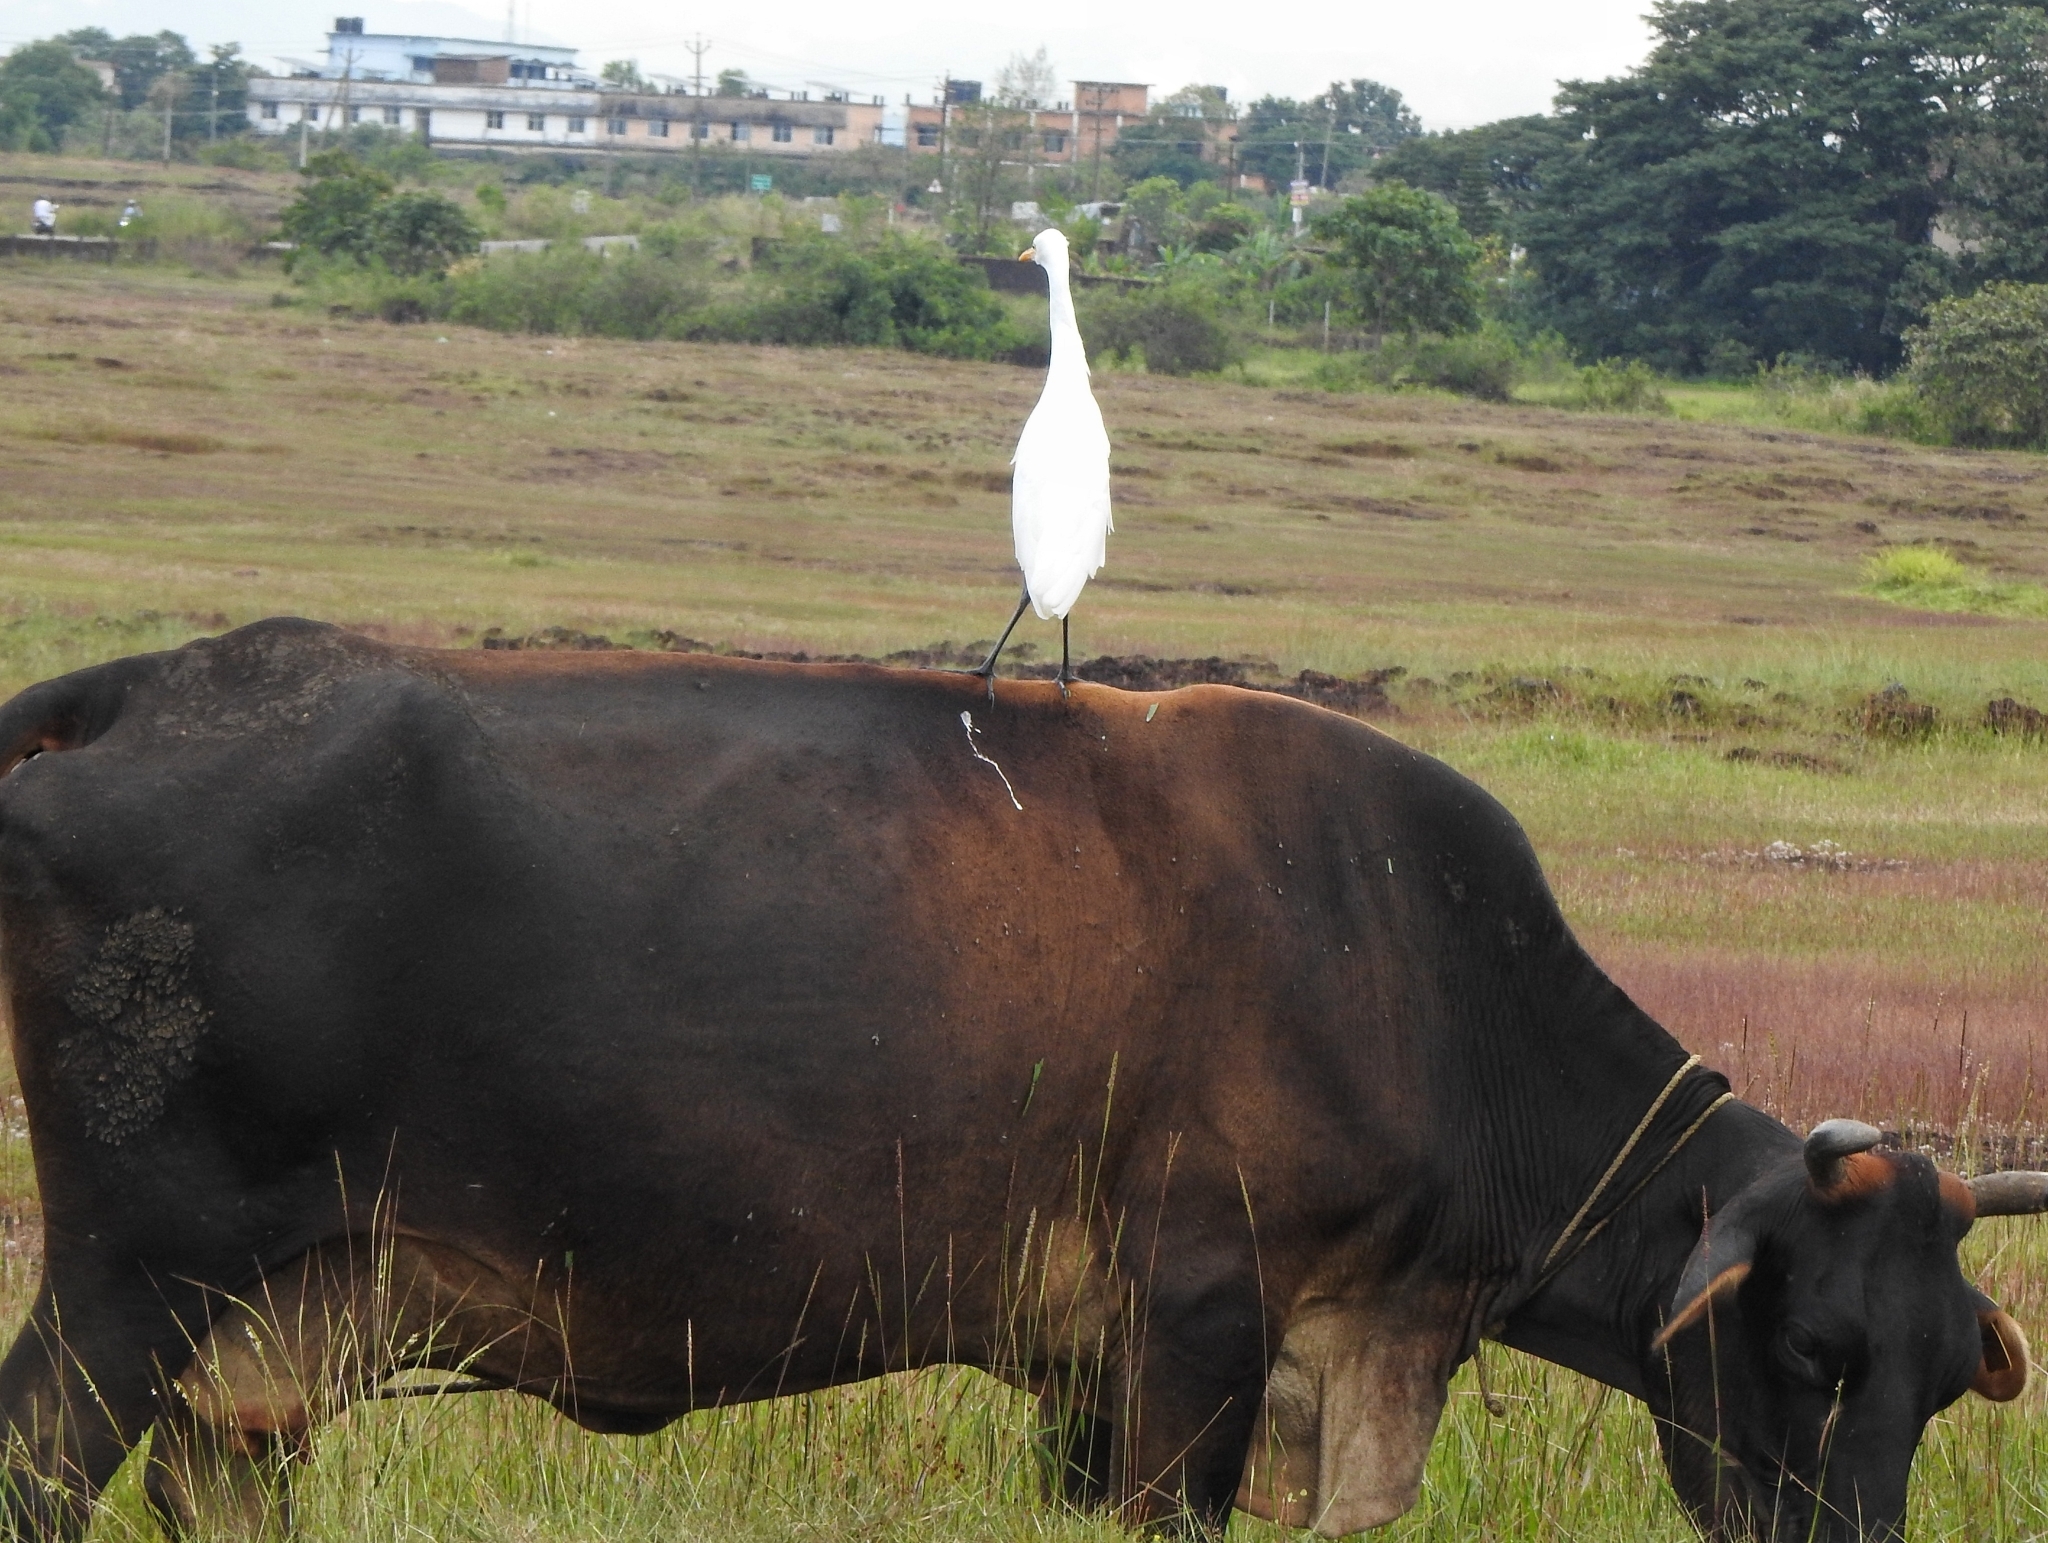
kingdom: Animalia
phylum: Chordata
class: Aves
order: Pelecaniformes
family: Ardeidae
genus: Bubulcus
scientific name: Bubulcus coromandus
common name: Eastern cattle egret
